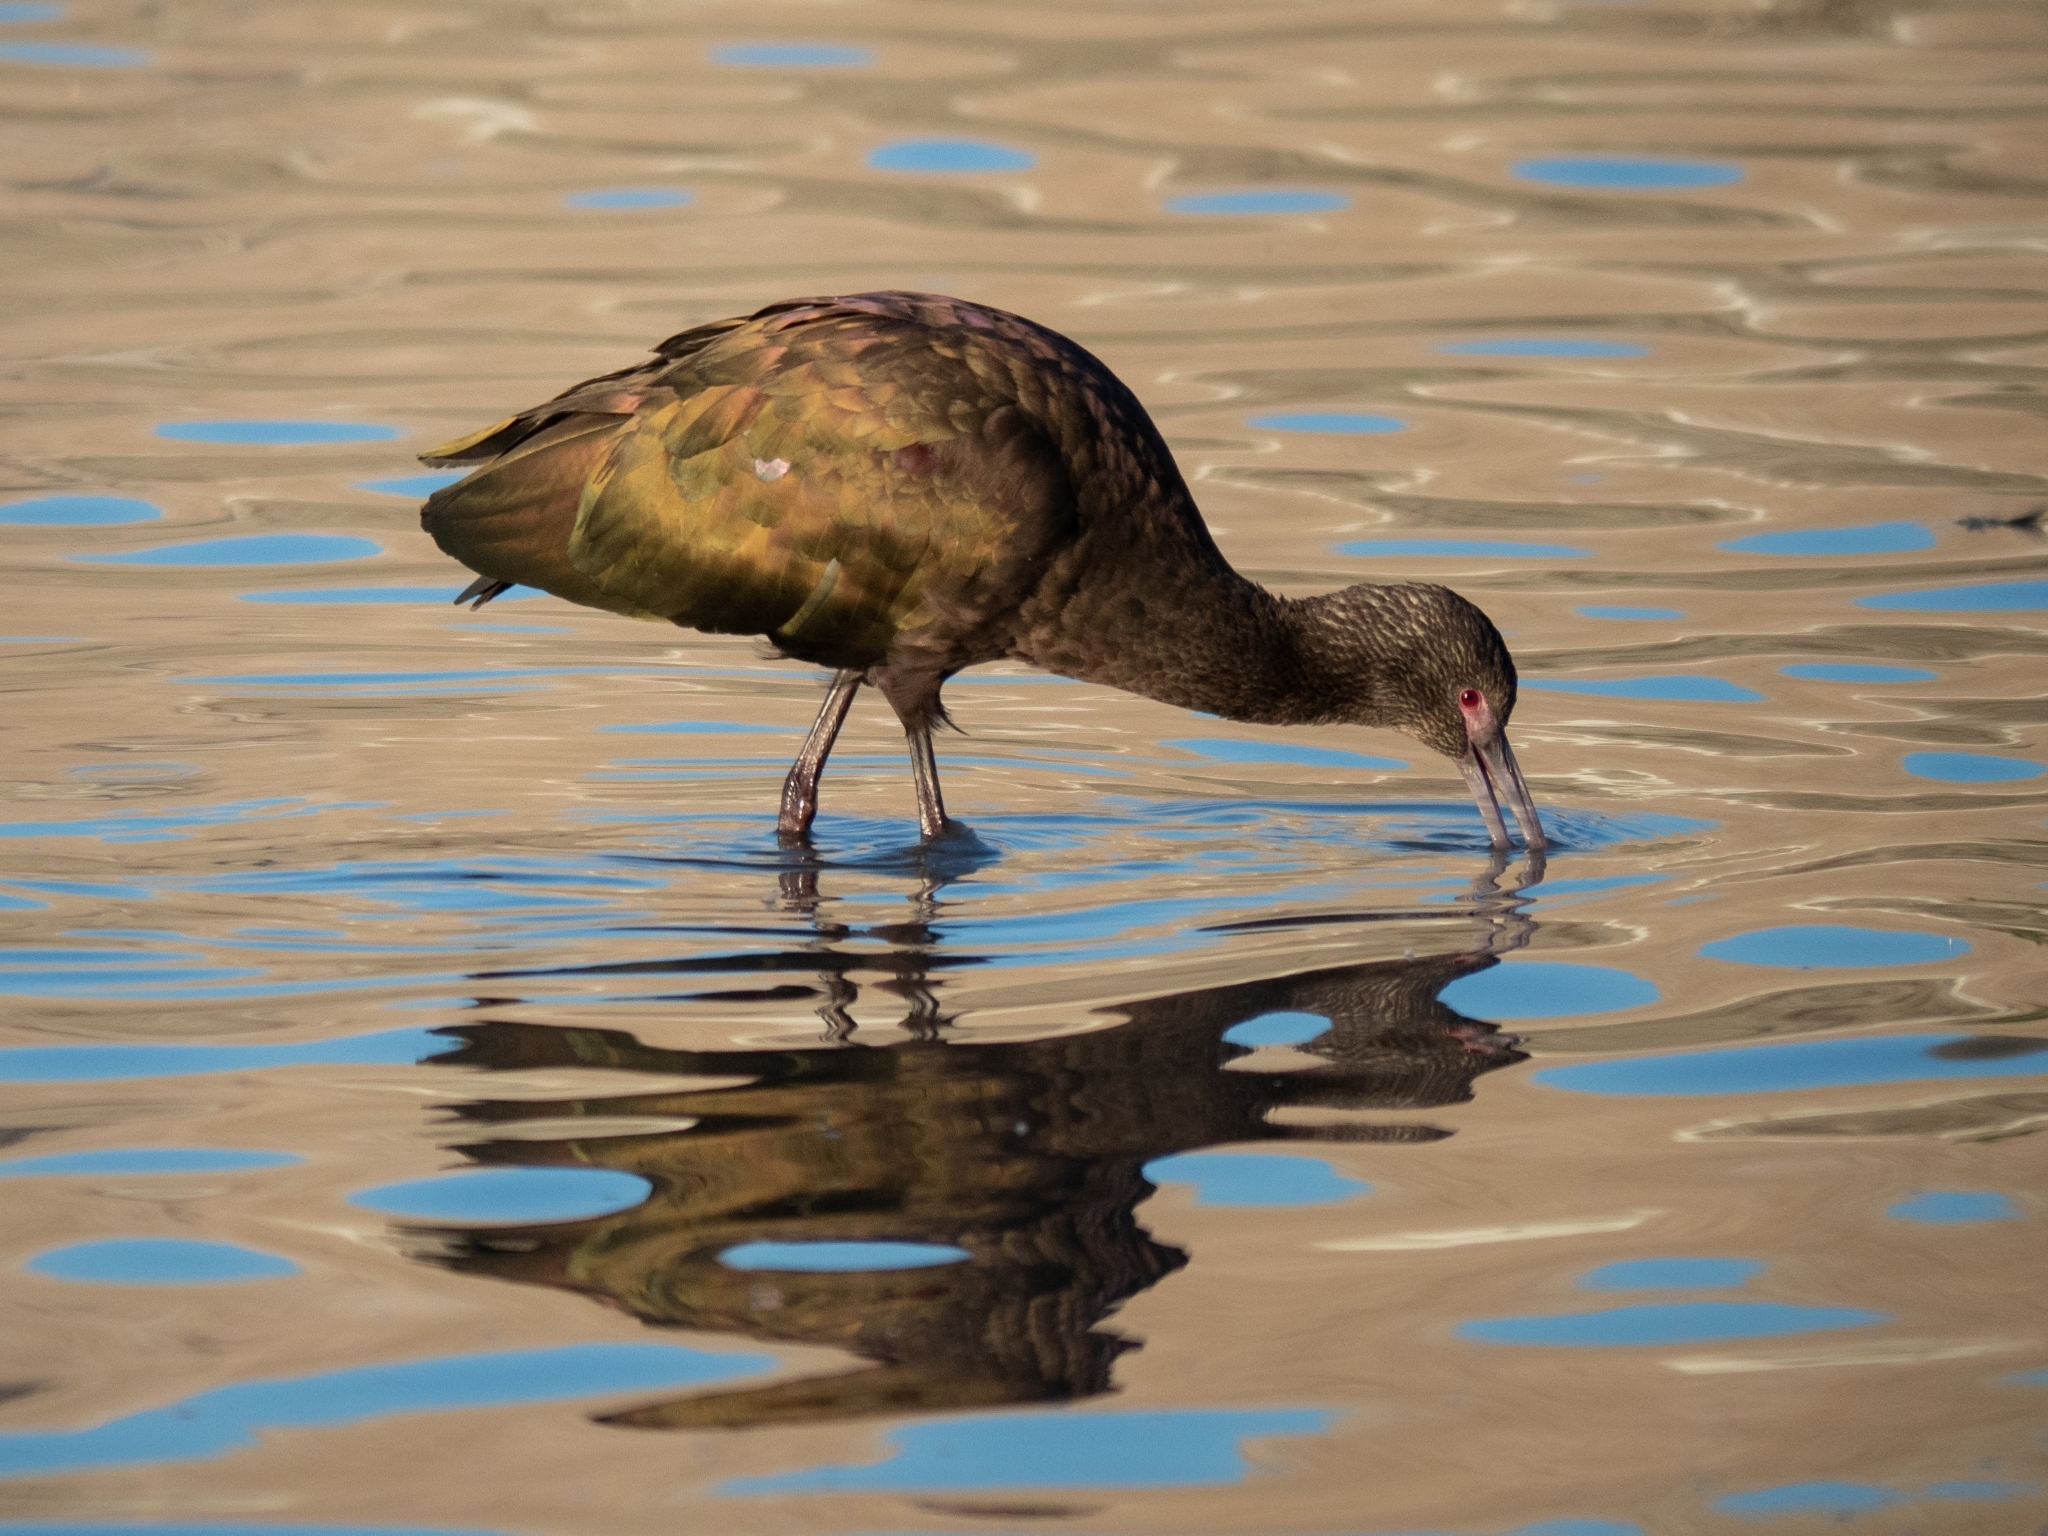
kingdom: Animalia
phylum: Chordata
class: Aves
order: Pelecaniformes
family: Threskiornithidae
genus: Plegadis
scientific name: Plegadis chihi
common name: White-faced ibis
